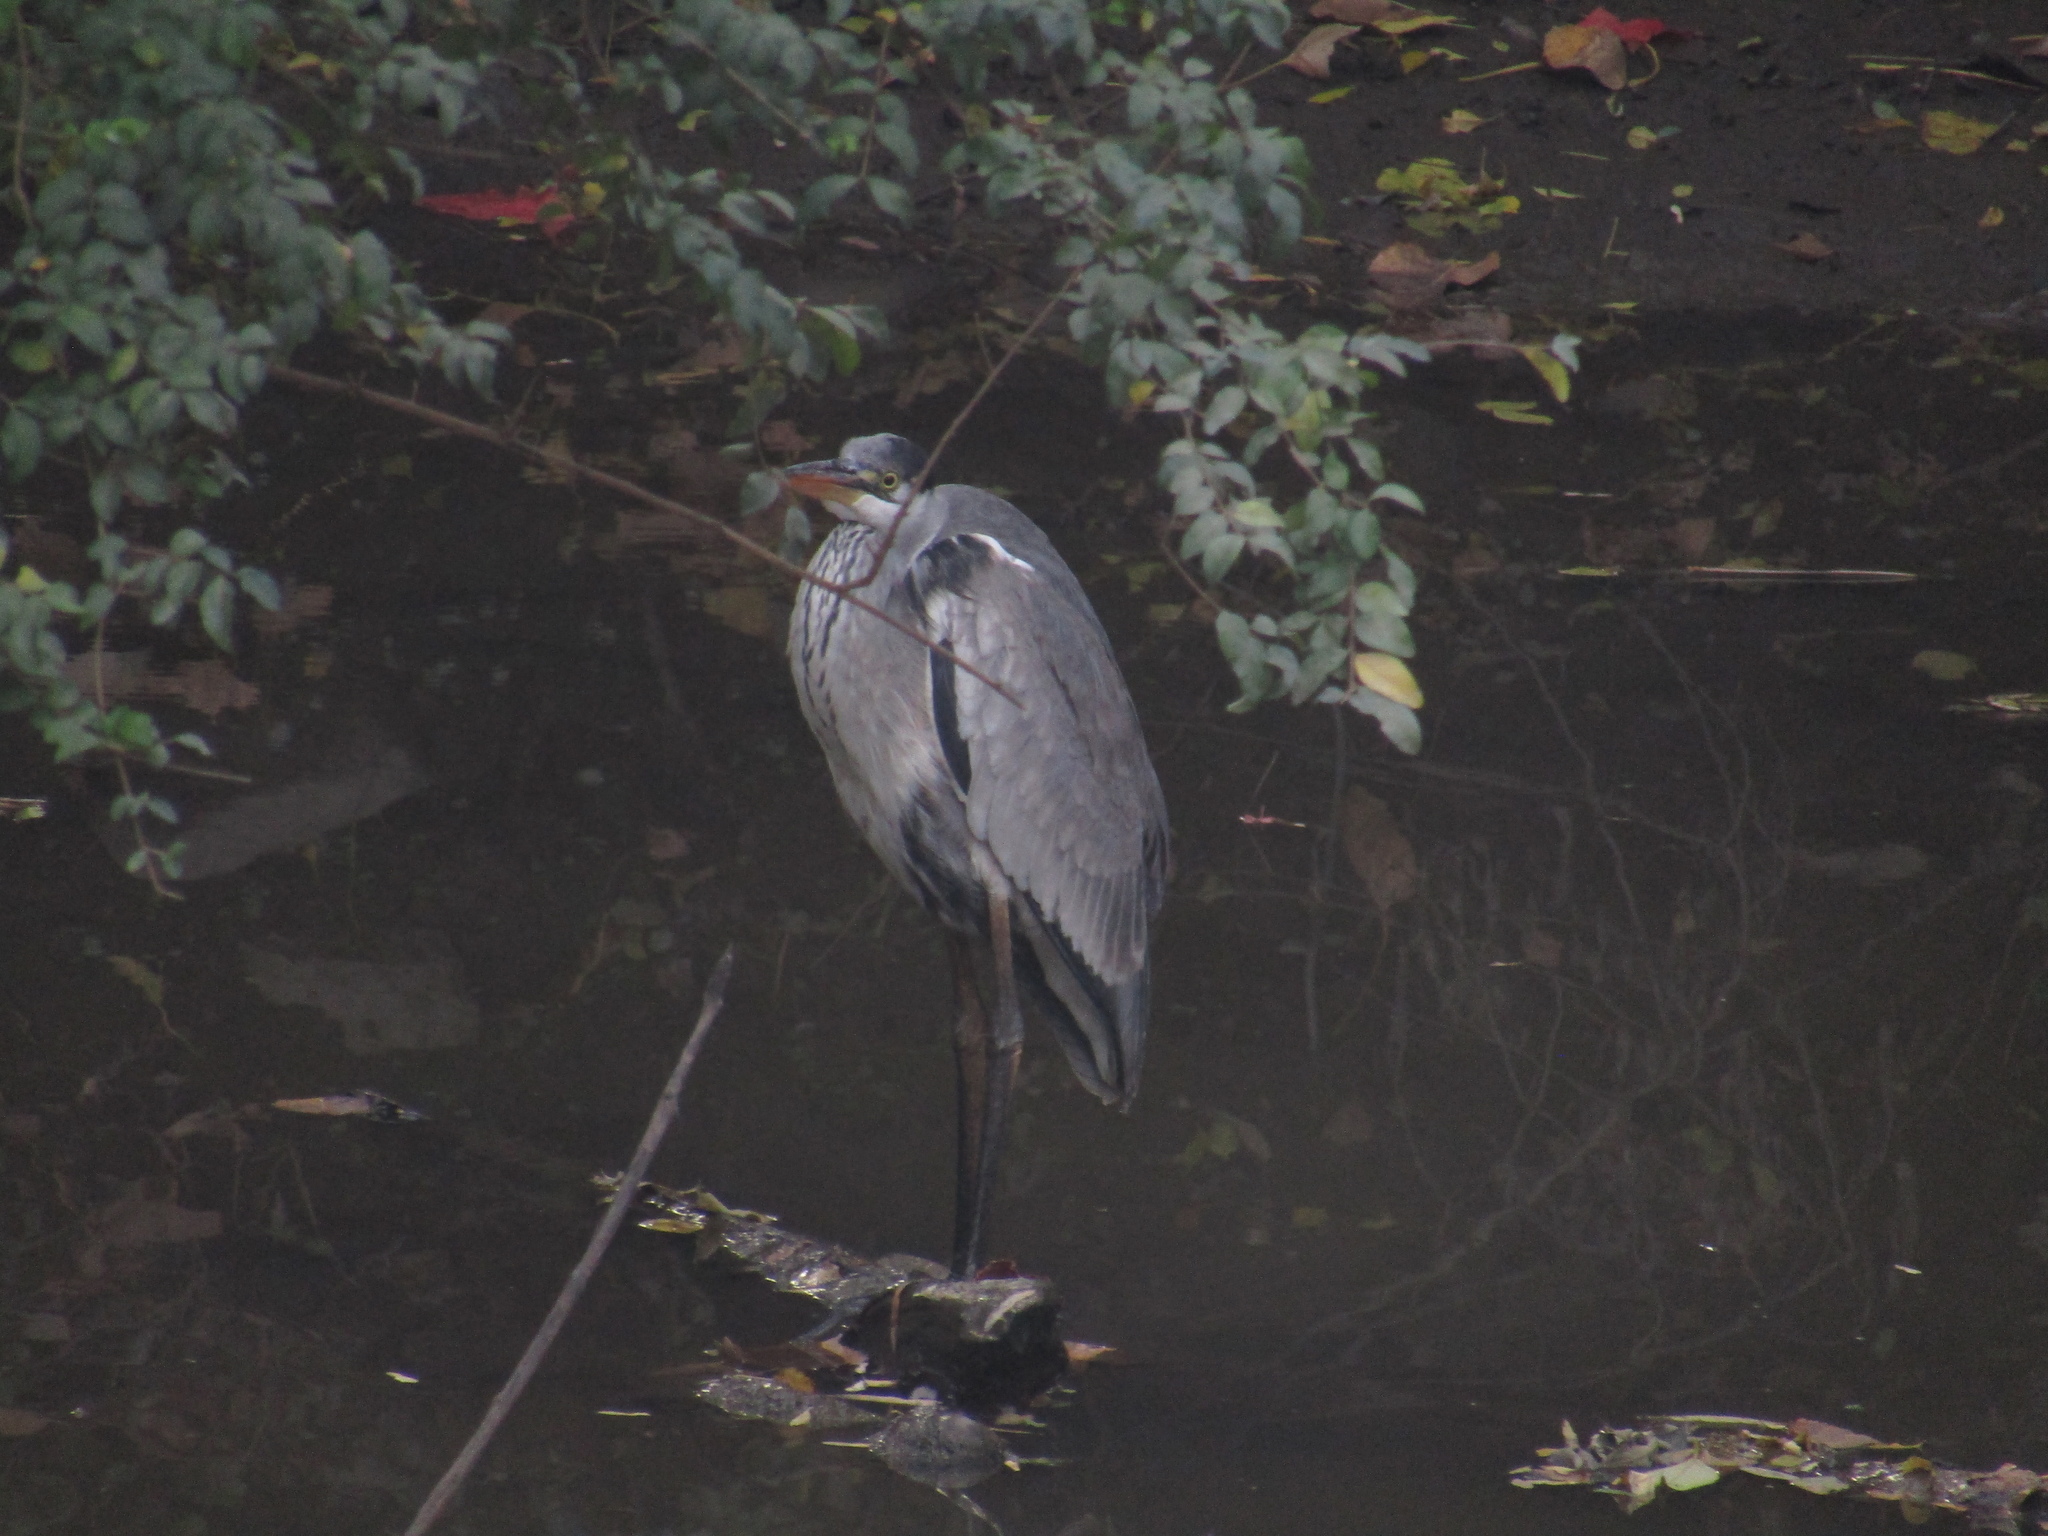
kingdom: Animalia
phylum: Chordata
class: Aves
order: Pelecaniformes
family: Ardeidae
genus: Ardea
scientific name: Ardea cocoi
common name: Cocoi heron
